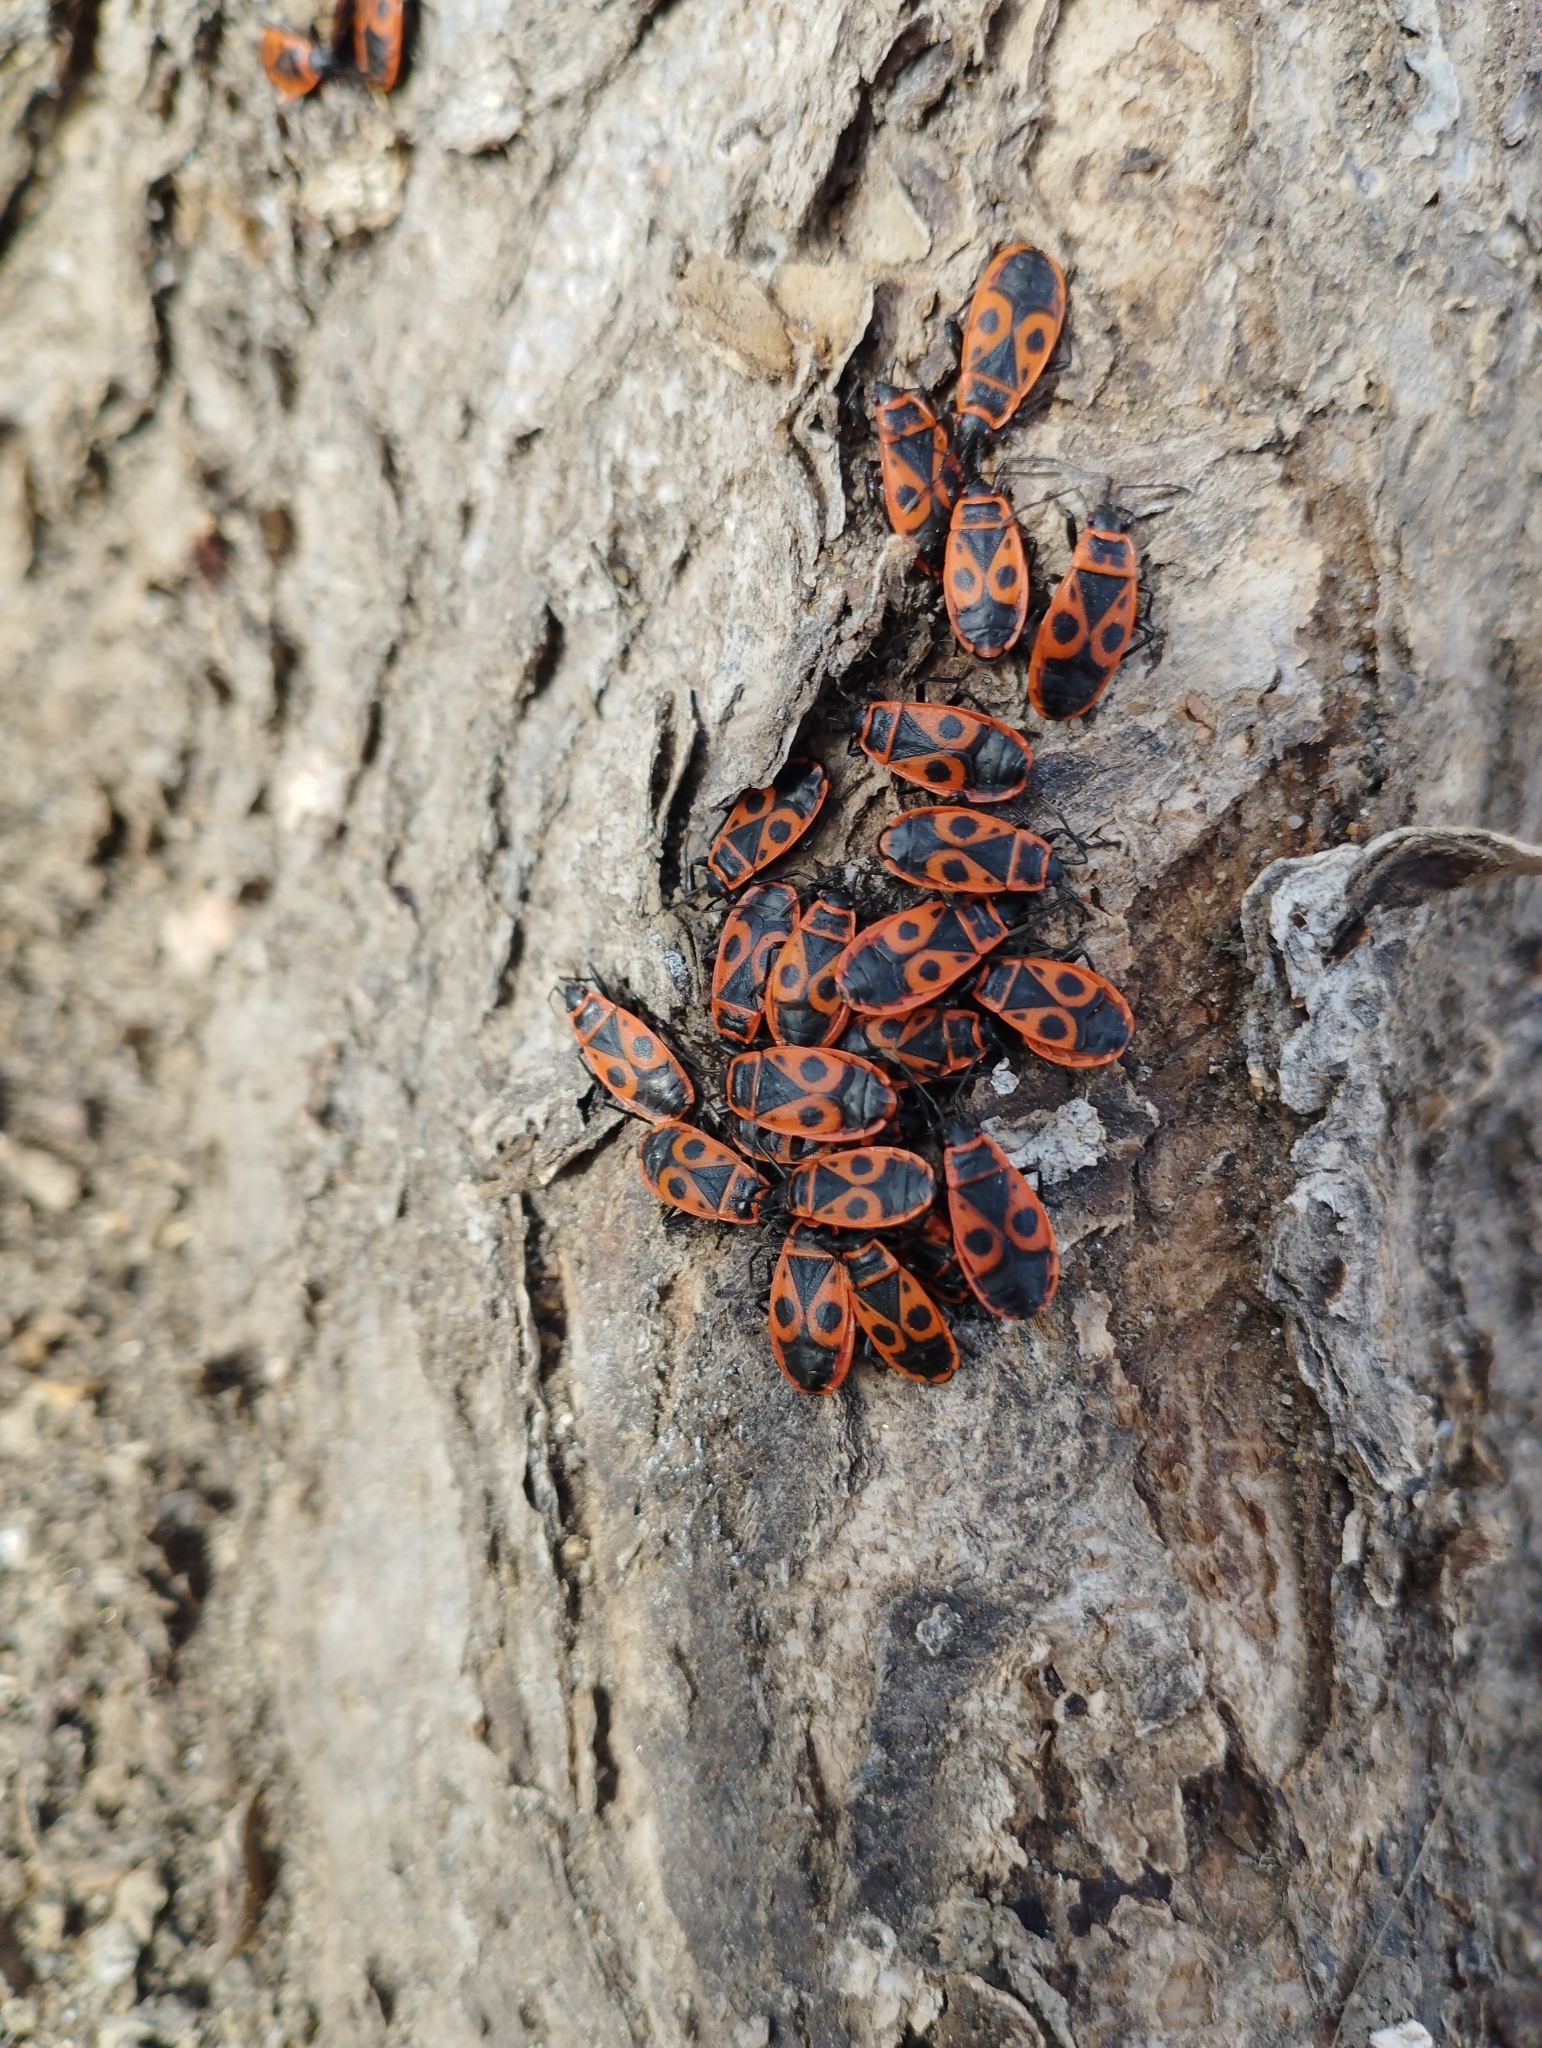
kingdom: Animalia
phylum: Arthropoda
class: Insecta
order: Hemiptera
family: Pyrrhocoridae
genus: Pyrrhocoris
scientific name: Pyrrhocoris apterus
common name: Firebug
